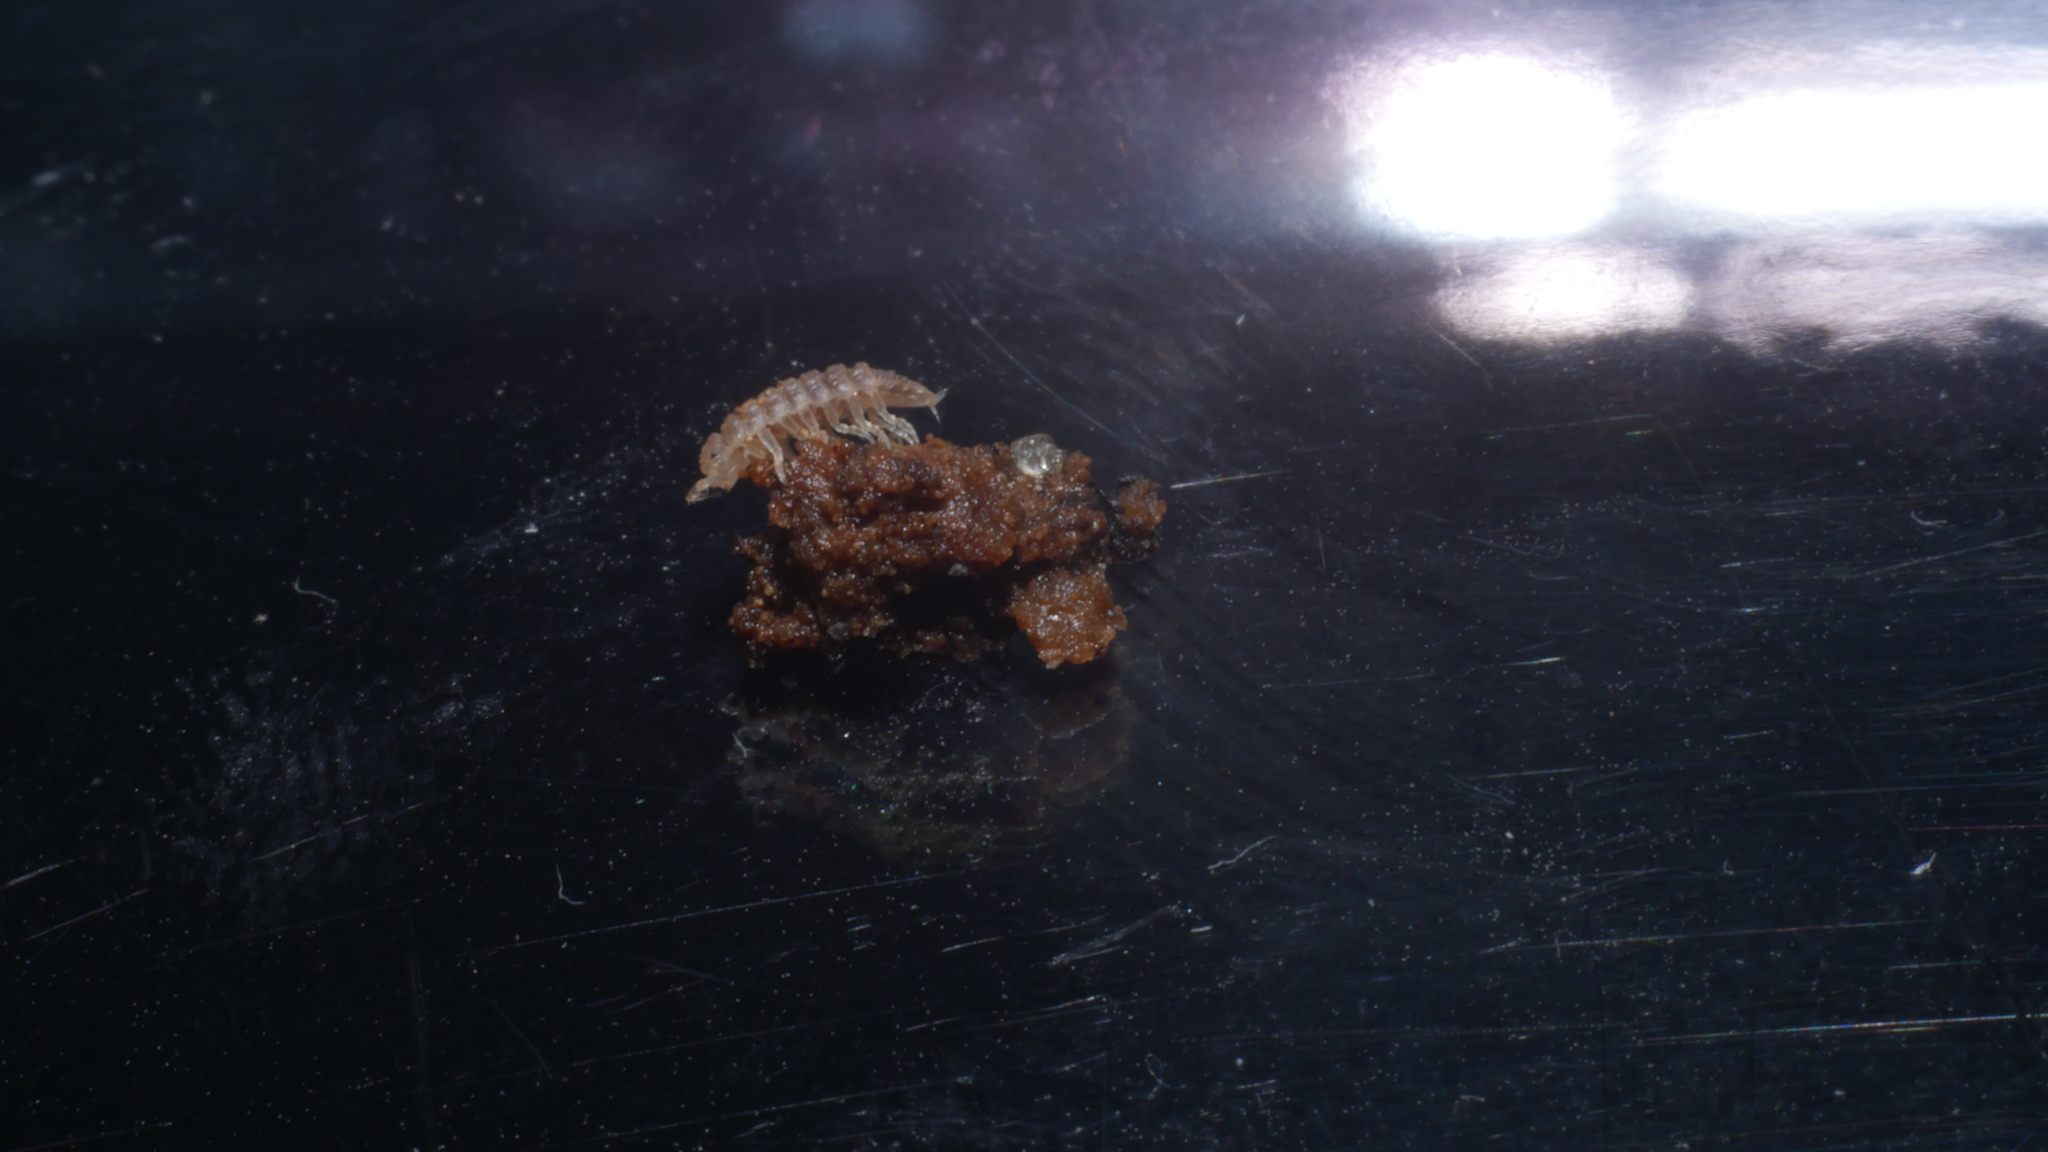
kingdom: Animalia
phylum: Arthropoda
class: Malacostraca
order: Isopoda
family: Trichoniscidae
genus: Haplophthalmus
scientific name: Haplophthalmus danicus
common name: Pillbug
